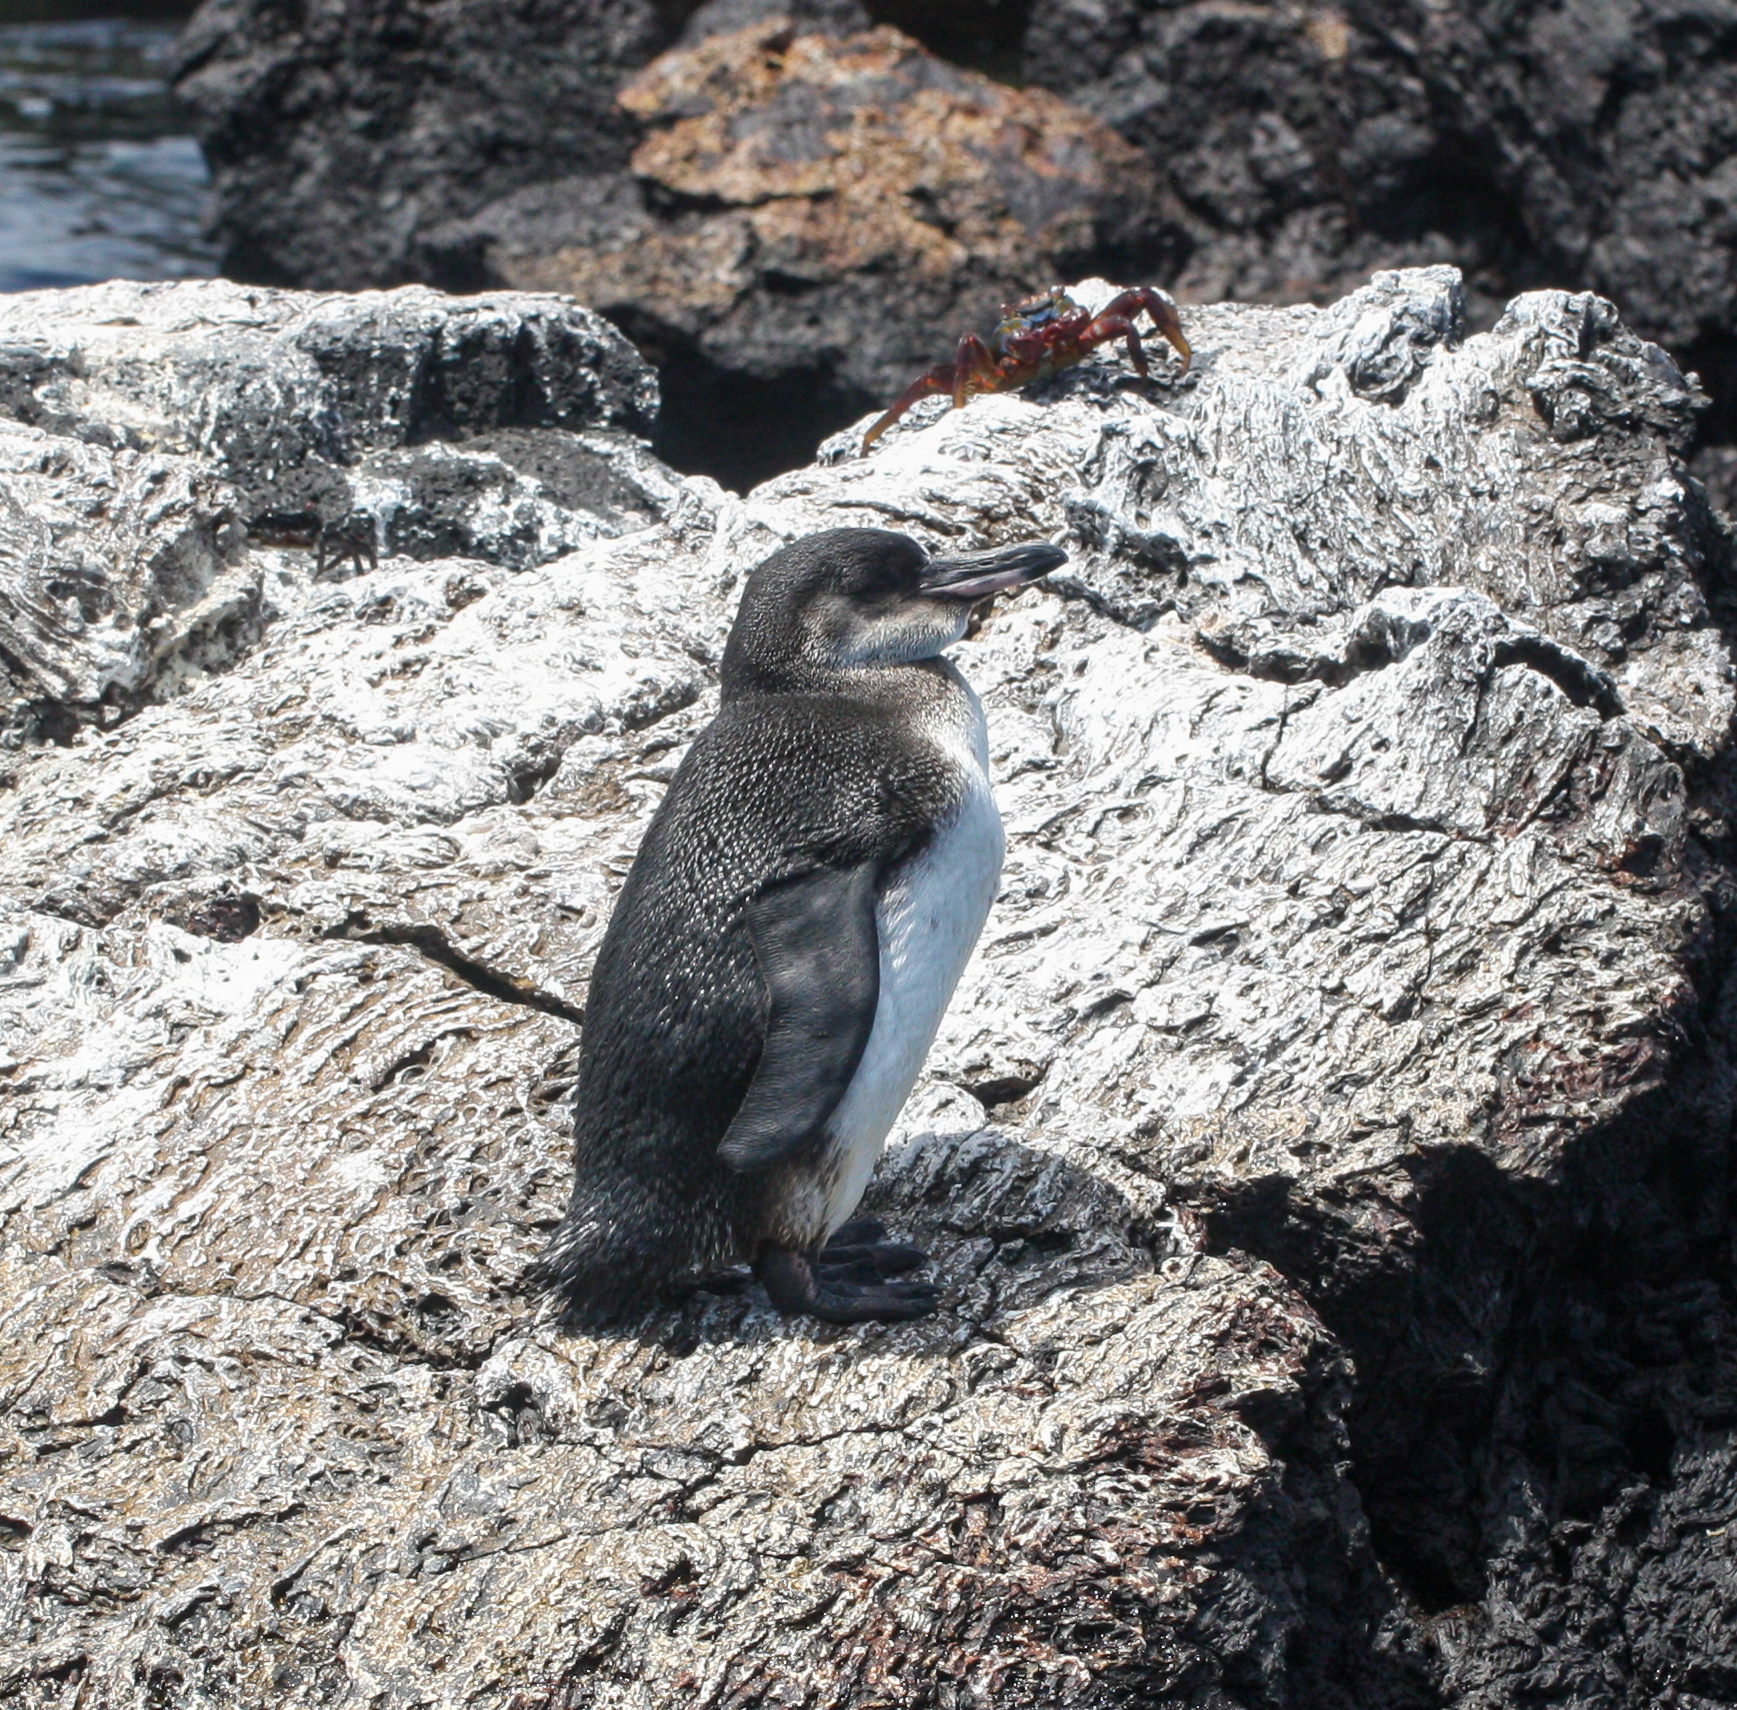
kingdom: Animalia
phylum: Chordata
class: Aves
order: Sphenisciformes
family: Spheniscidae
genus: Spheniscus
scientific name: Spheniscus mendiculus
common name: Galapagos penguin
